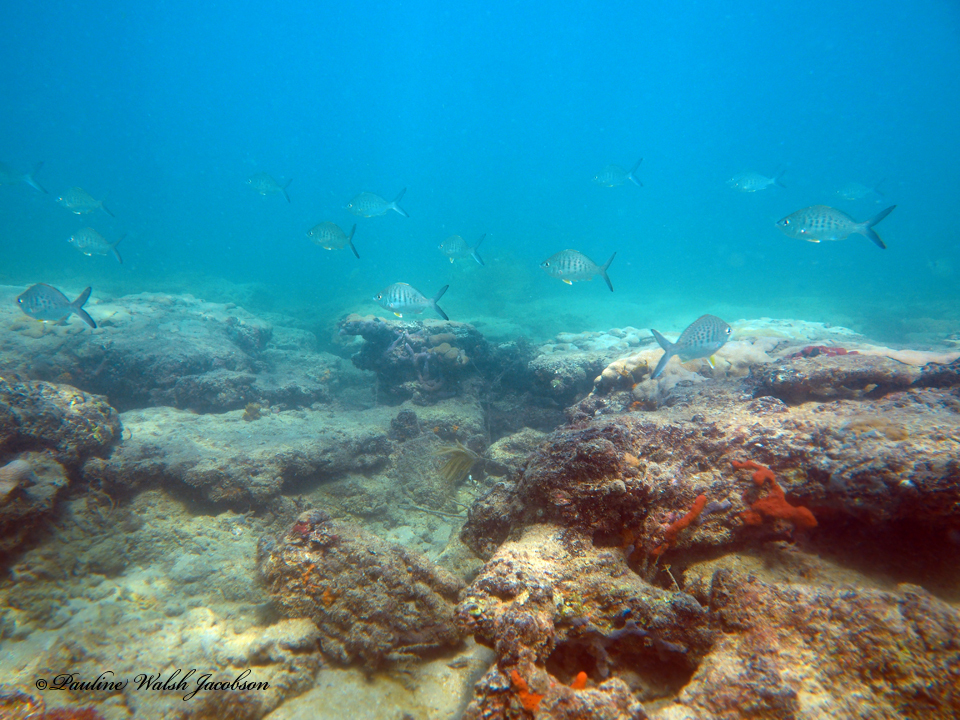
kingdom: Animalia
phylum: Chordata
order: Perciformes
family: Gerreidae
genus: Gerres
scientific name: Gerres cinereus
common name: Hedow
